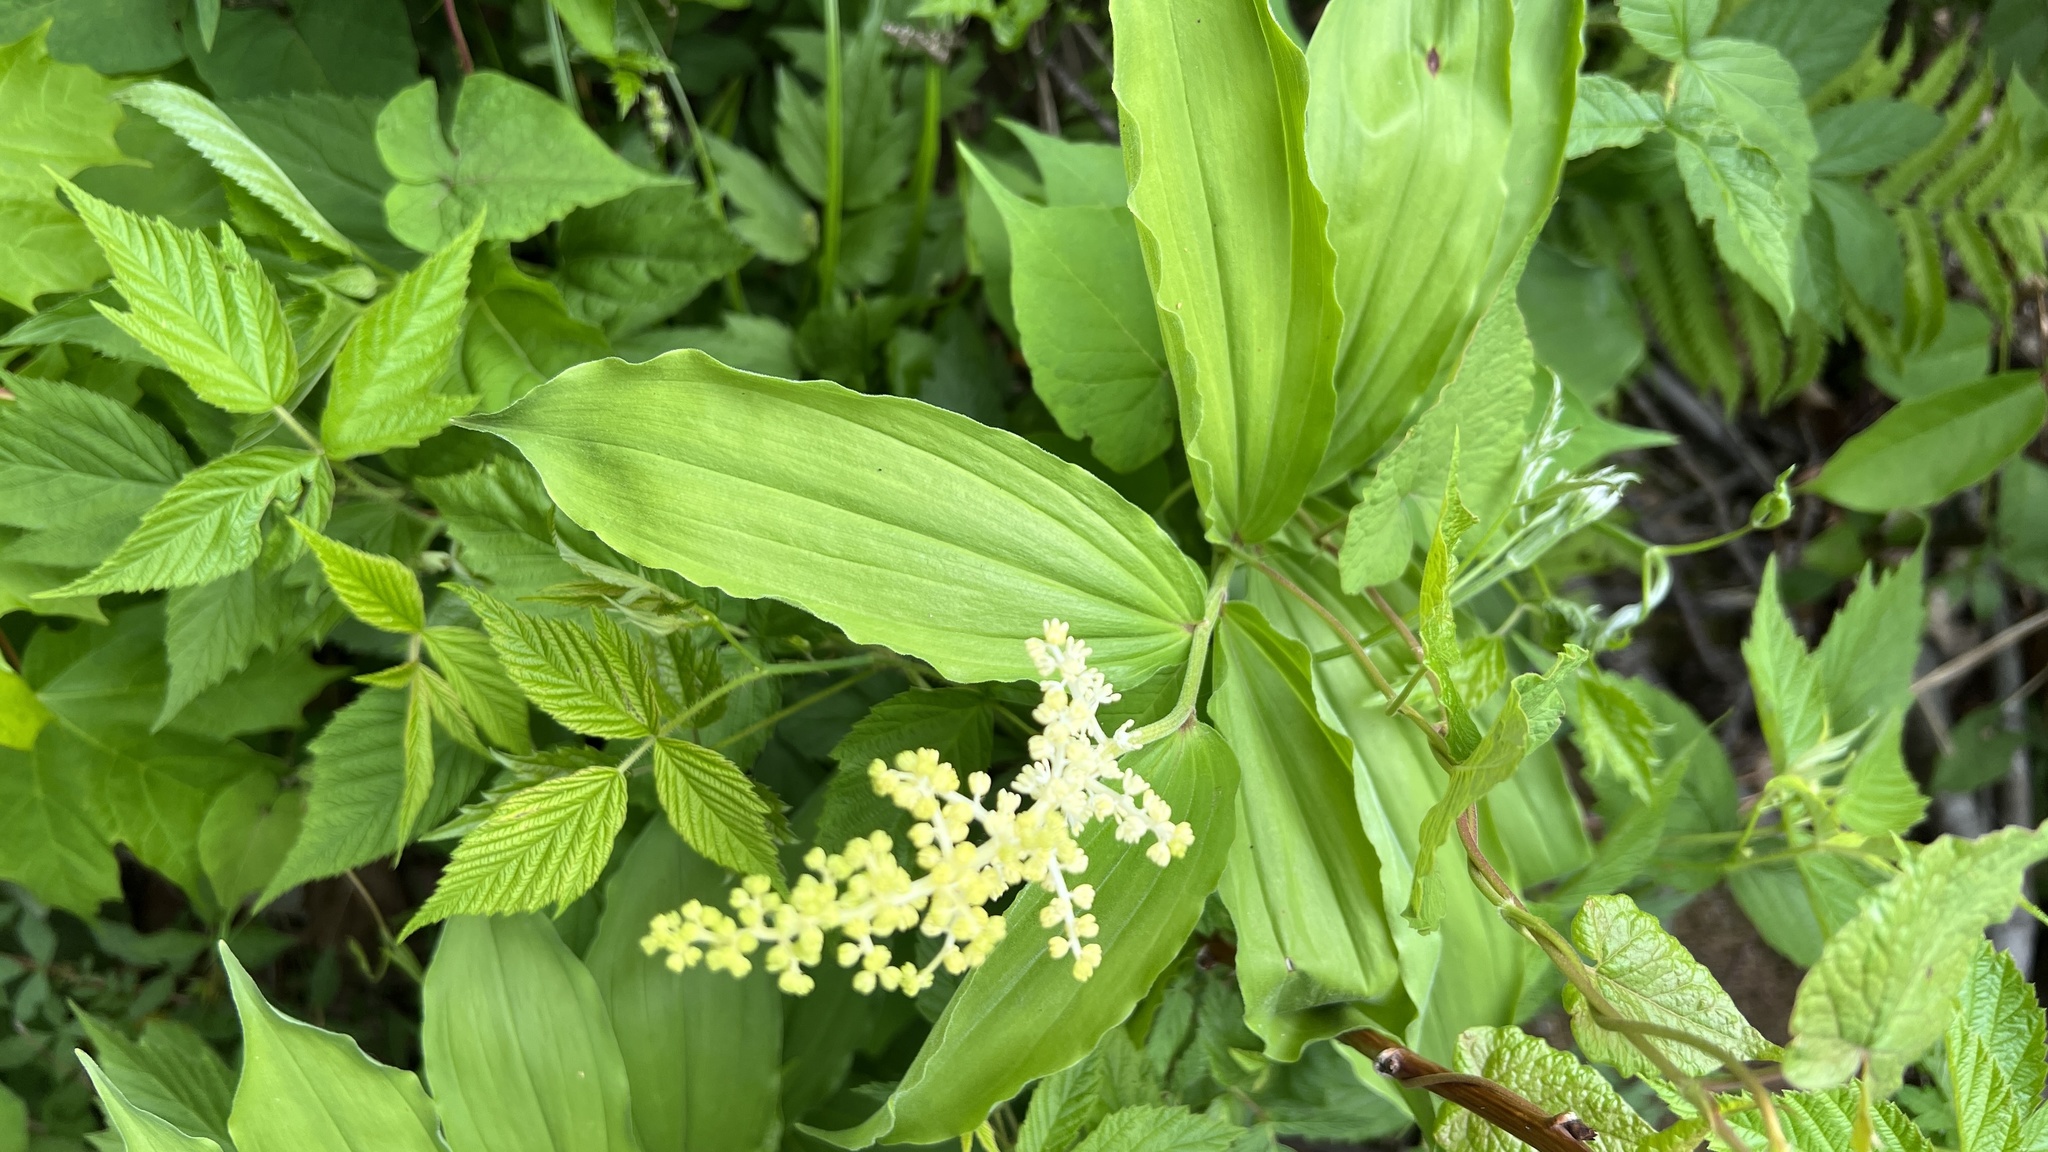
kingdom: Plantae
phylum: Tracheophyta
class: Liliopsida
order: Asparagales
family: Asparagaceae
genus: Maianthemum
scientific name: Maianthemum racemosum
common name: False spikenard
